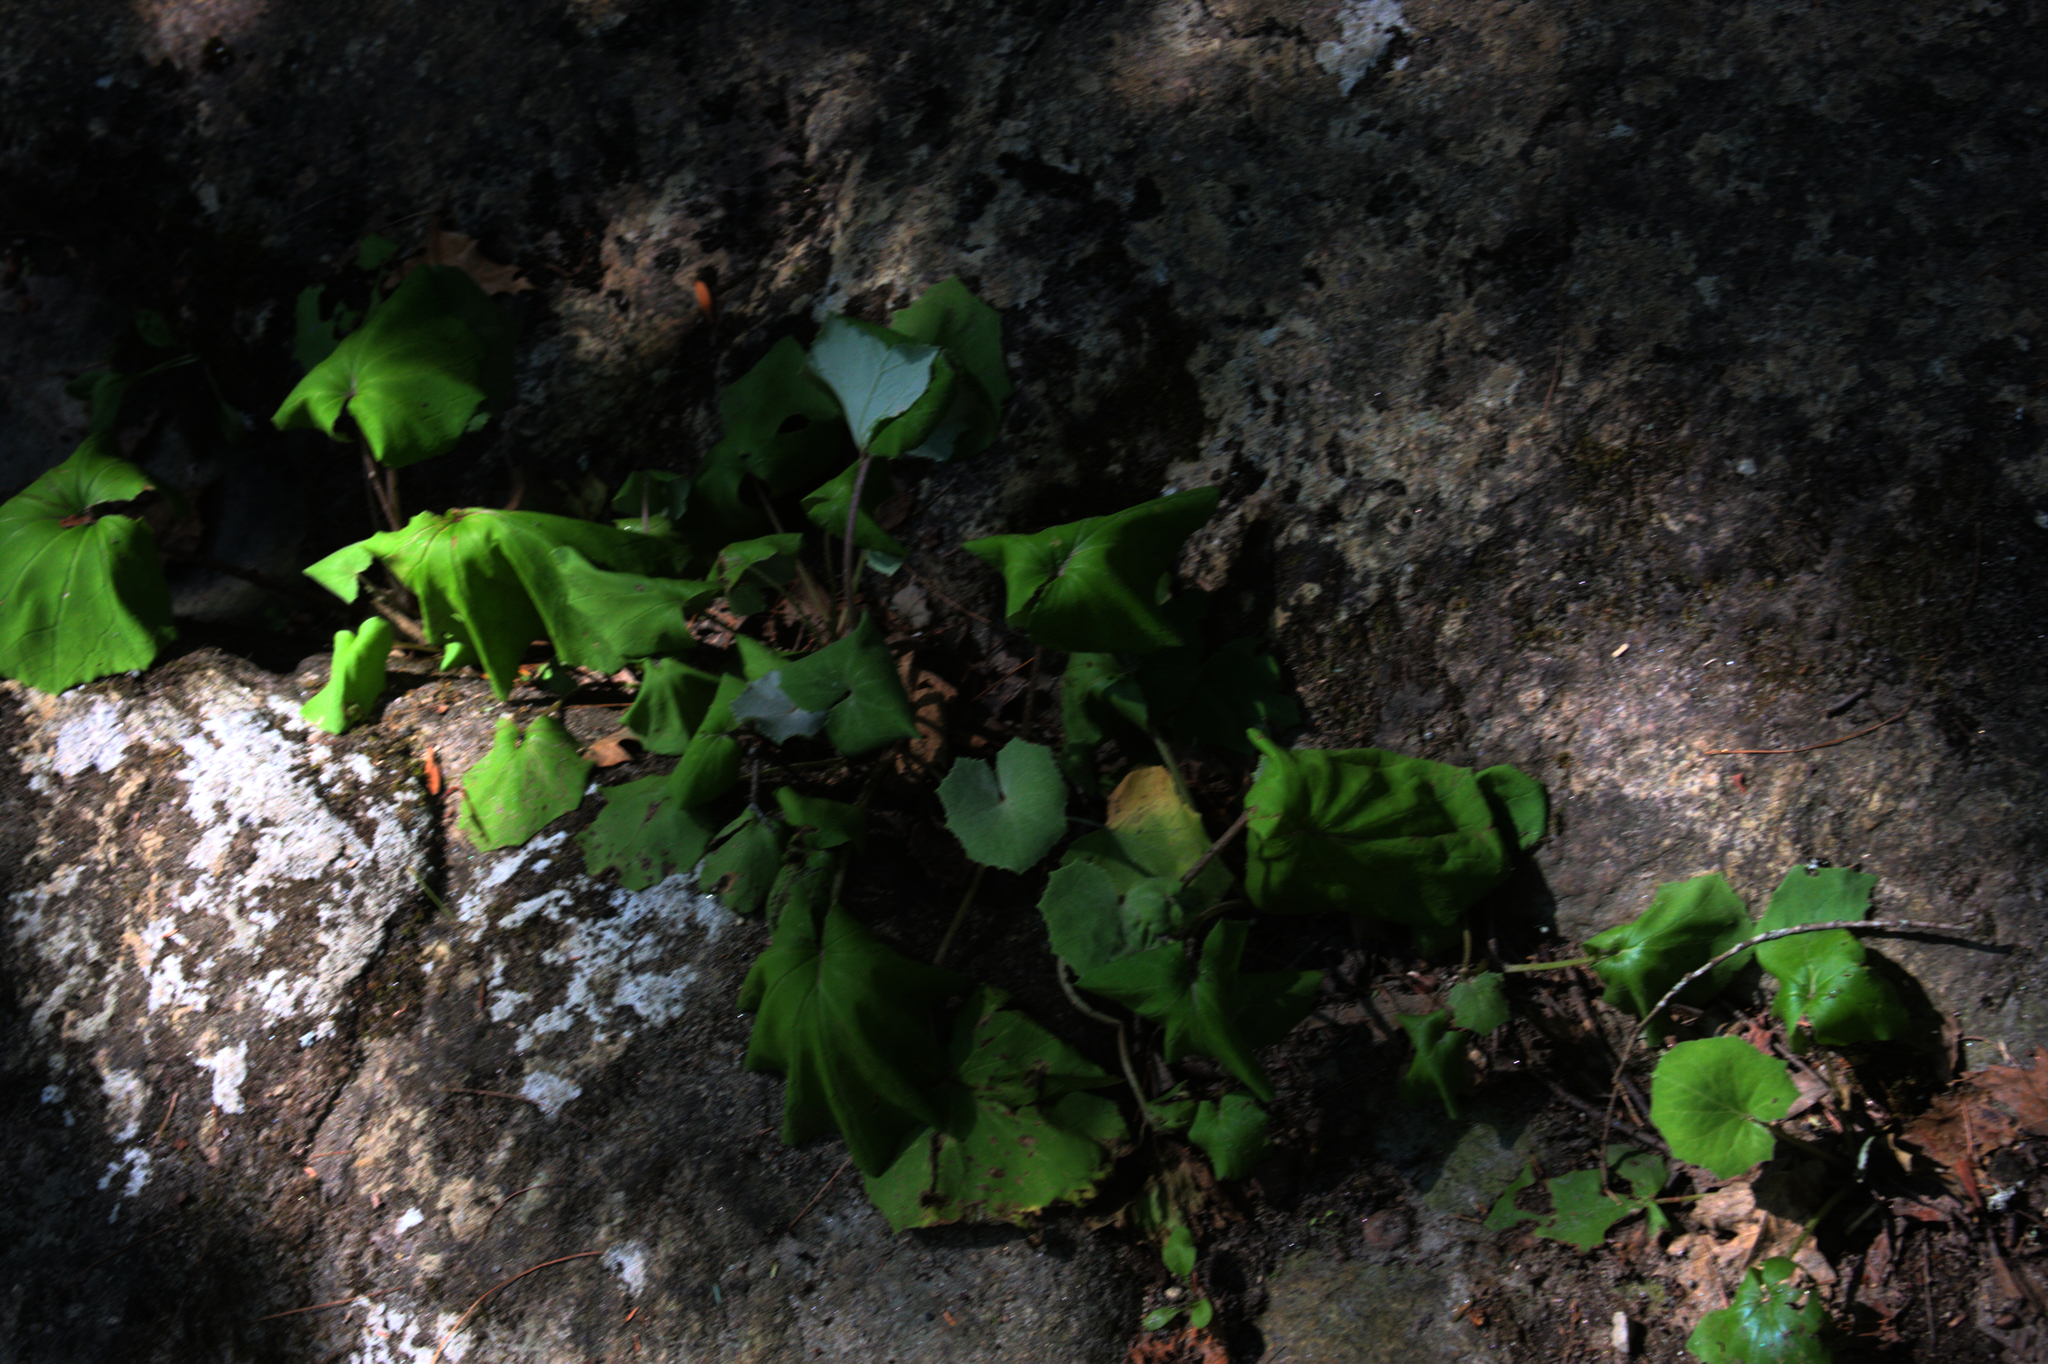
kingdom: Plantae
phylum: Tracheophyta
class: Magnoliopsida
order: Asterales
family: Asteraceae
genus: Tussilago
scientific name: Tussilago farfara
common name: Coltsfoot
